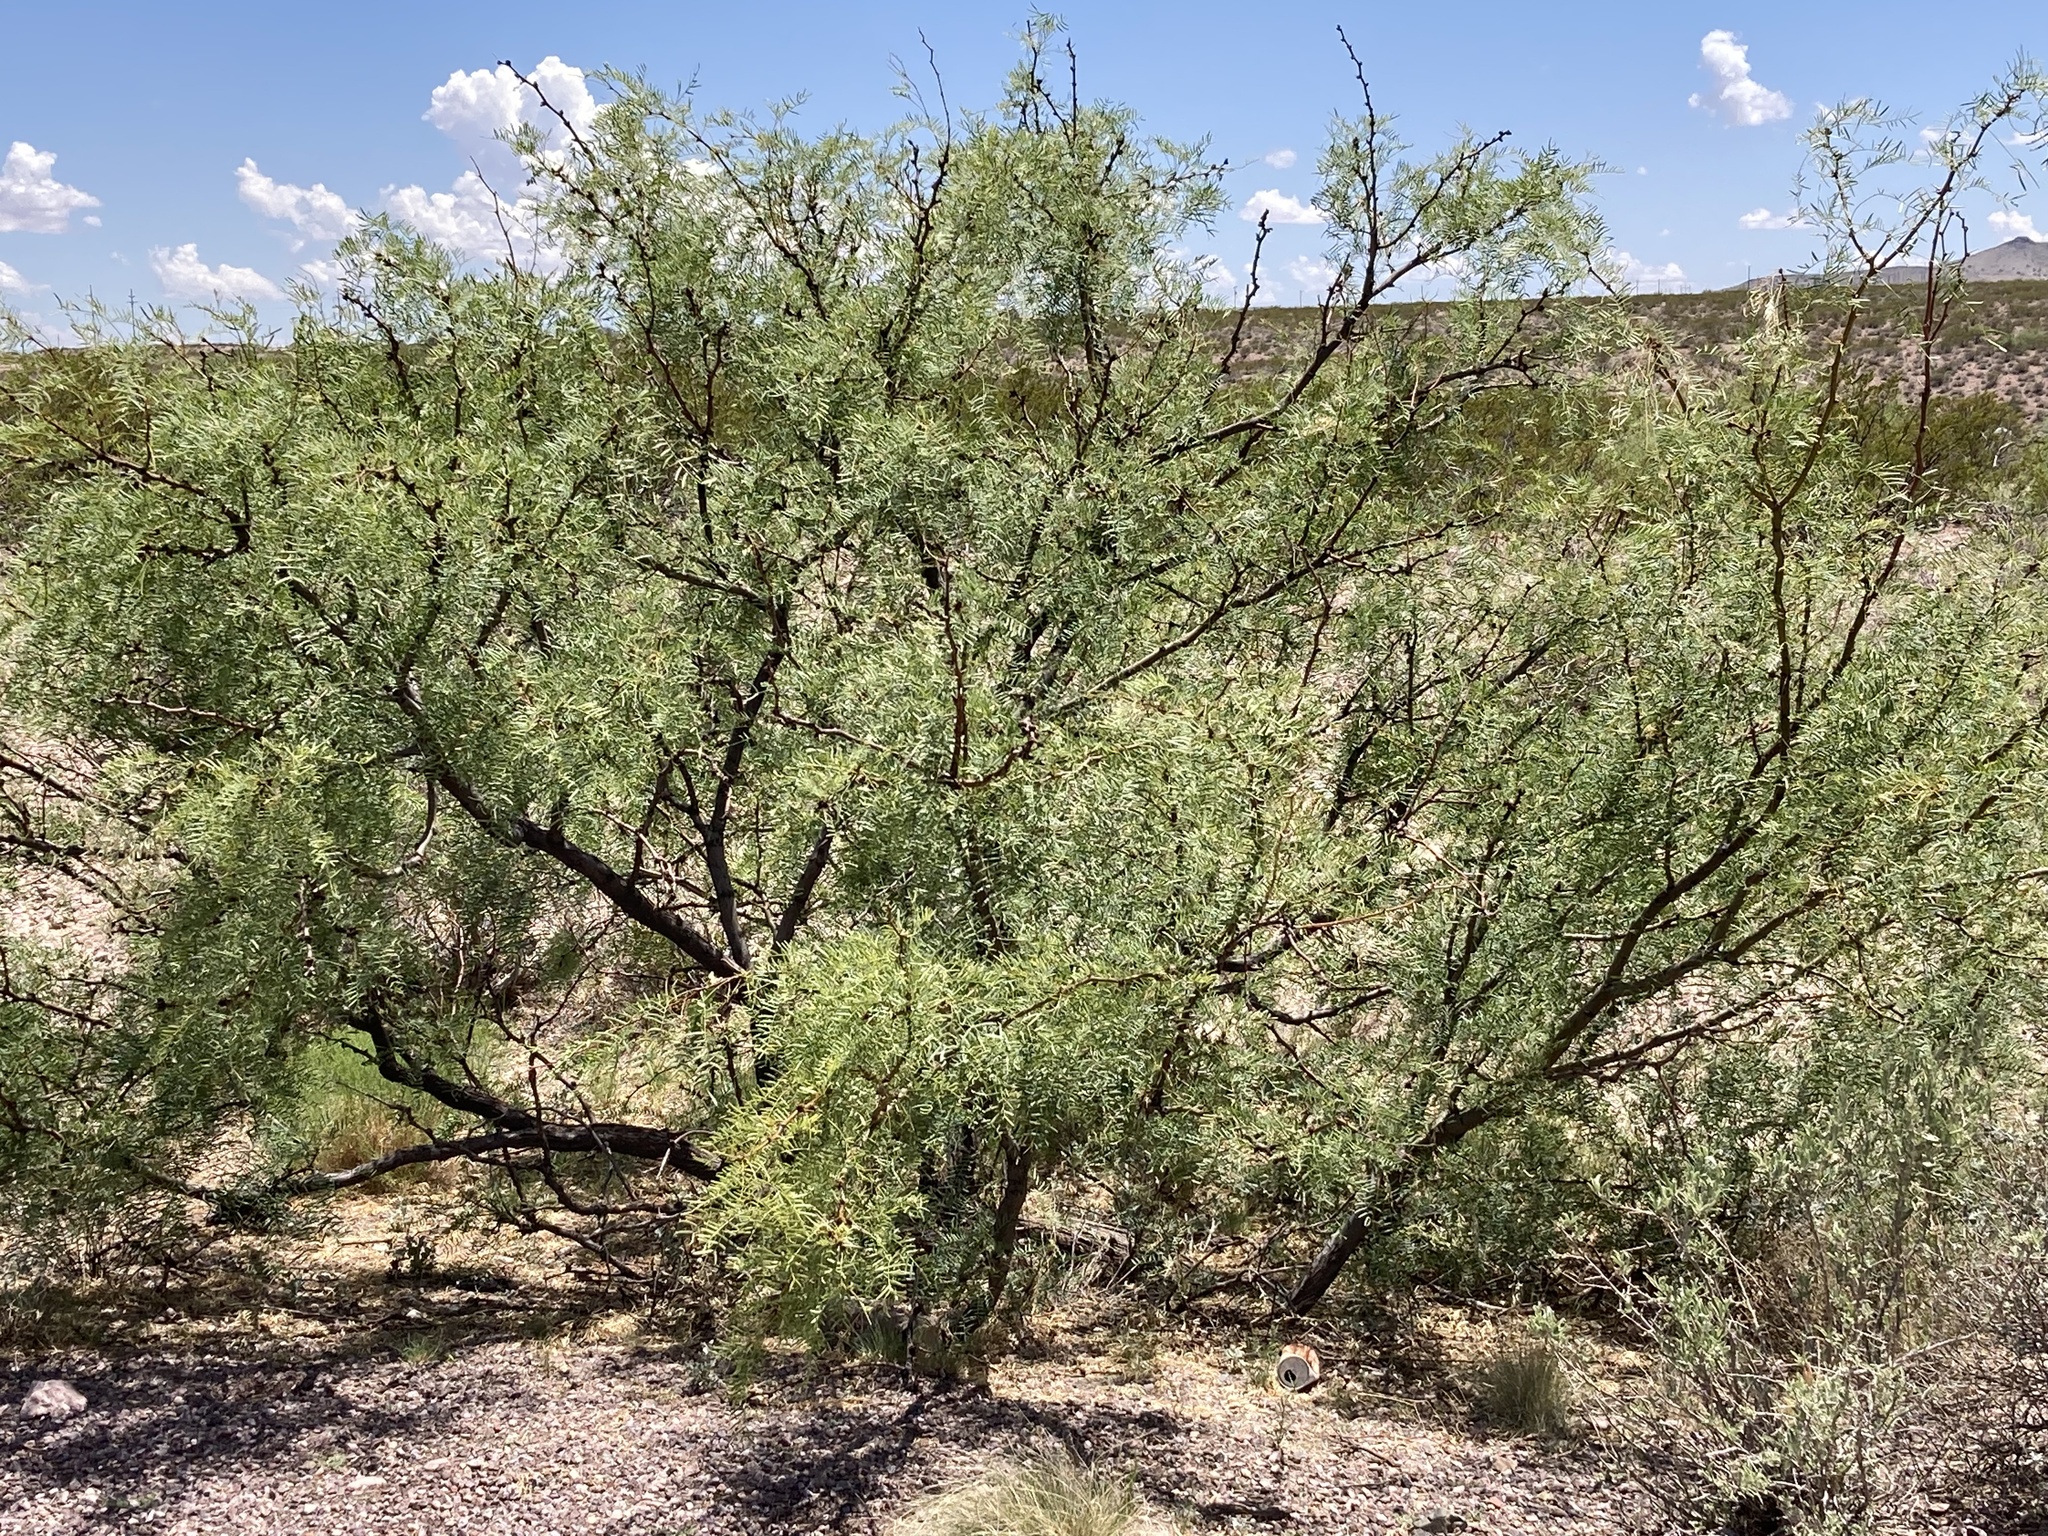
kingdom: Plantae
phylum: Tracheophyta
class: Magnoliopsida
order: Fabales
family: Fabaceae
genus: Prosopis
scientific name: Prosopis glandulosa
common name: Honey mesquite
